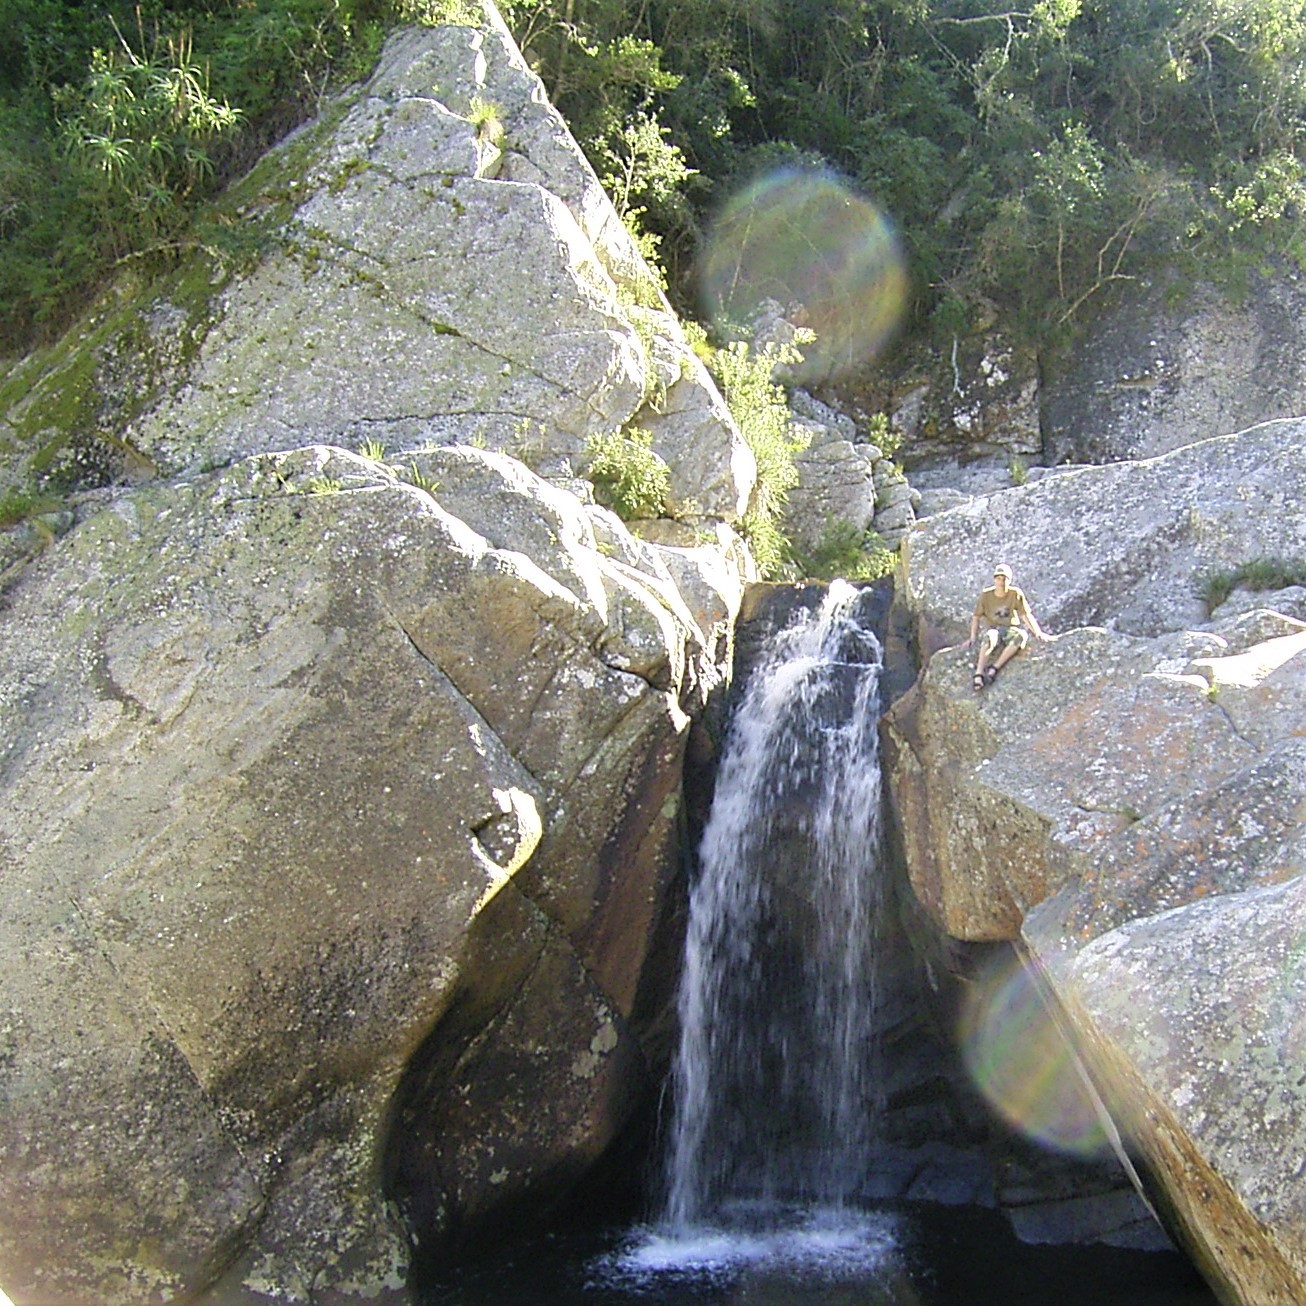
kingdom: Plantae
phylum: Tracheophyta
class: Liliopsida
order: Asparagales
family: Asphodelaceae
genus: Aloe
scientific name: Aloe arborescens
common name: Candelabra aloe
